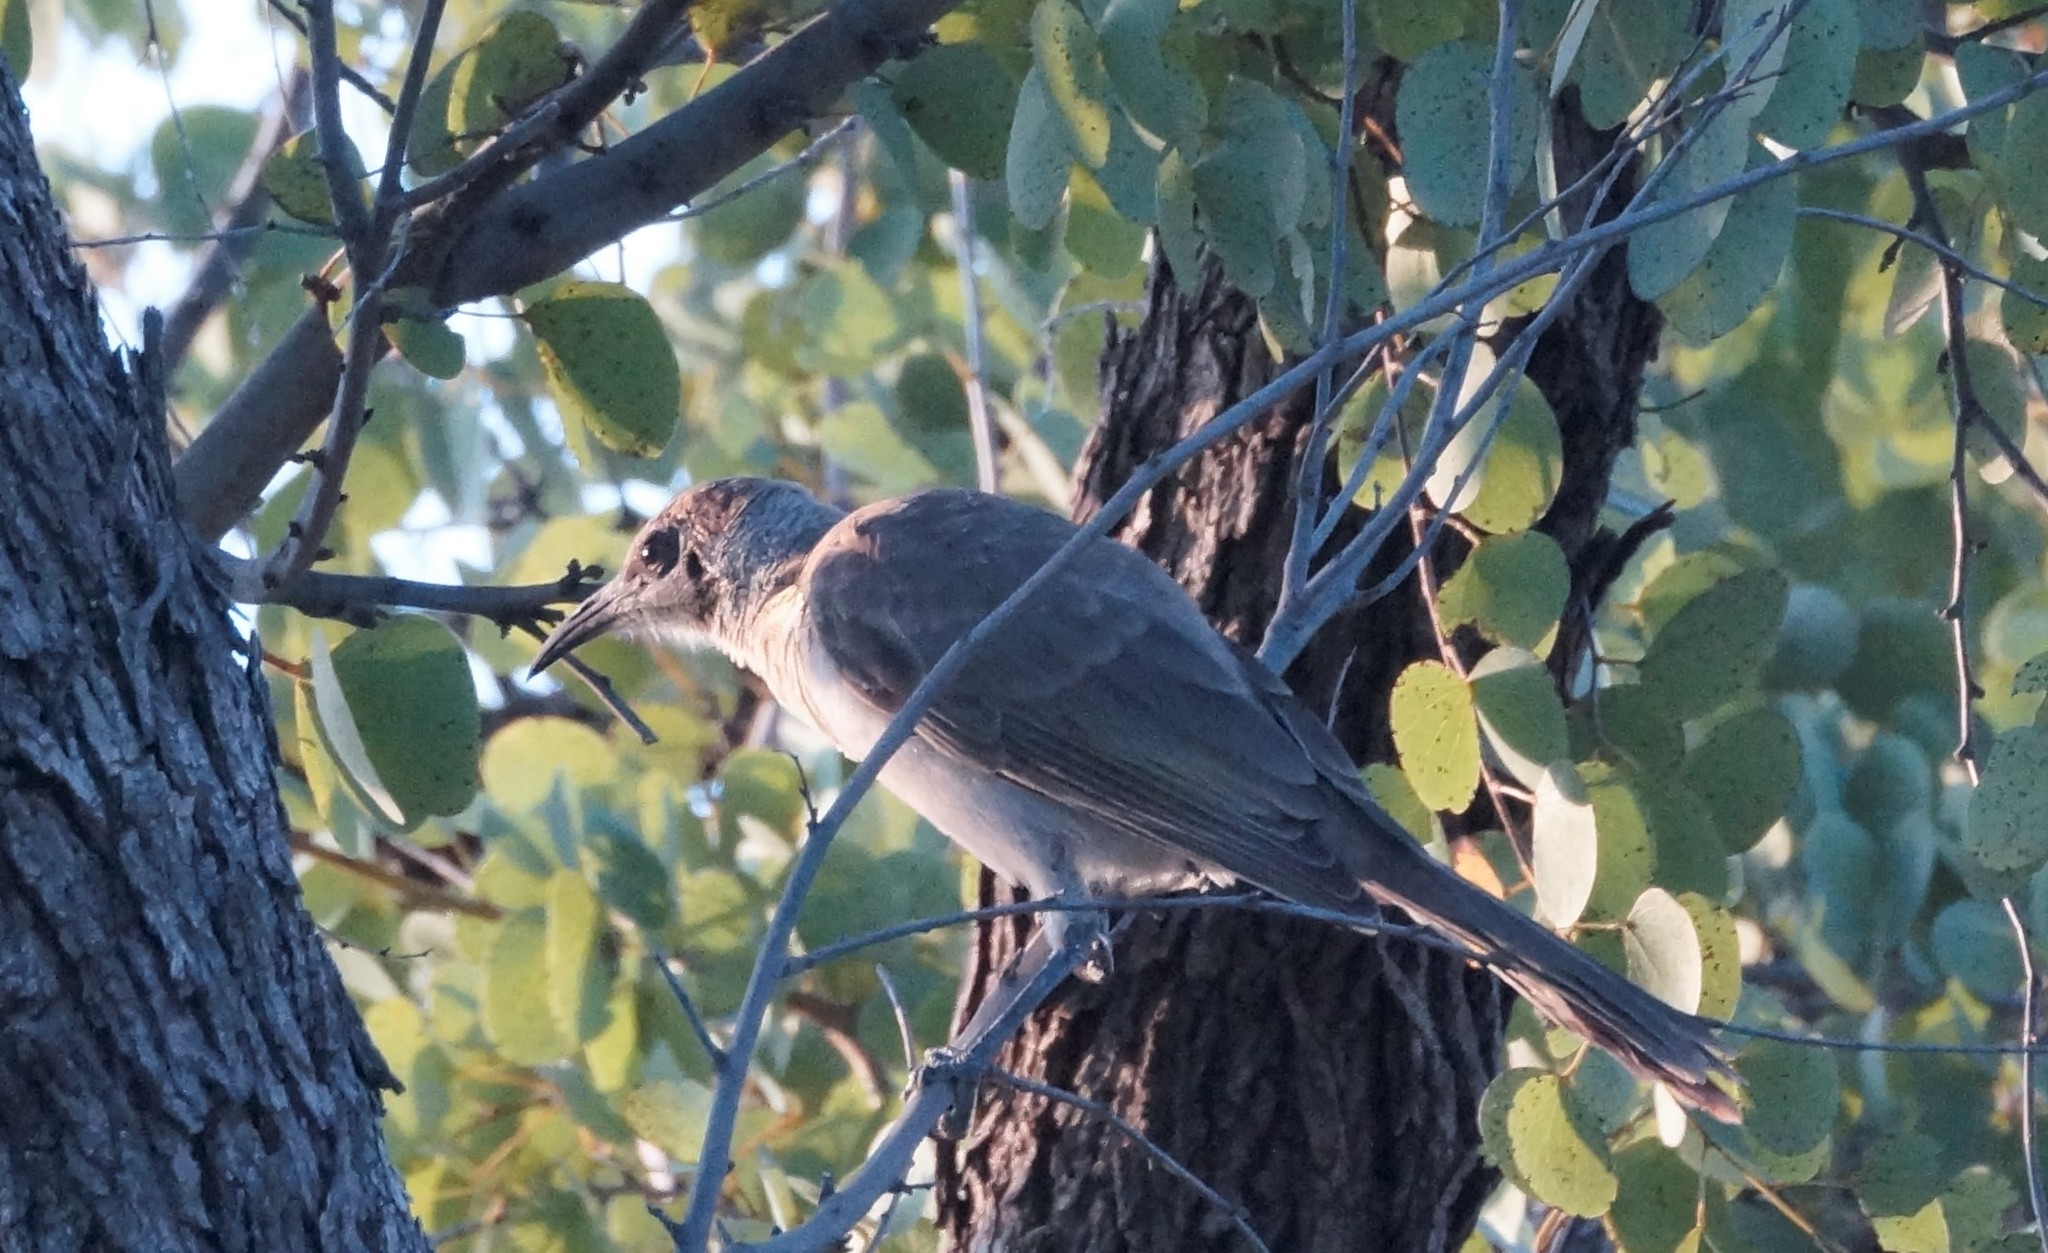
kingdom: Animalia
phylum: Chordata
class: Aves
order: Passeriformes
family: Meliphagidae
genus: Philemon
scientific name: Philemon citreogularis
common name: Little friarbird
